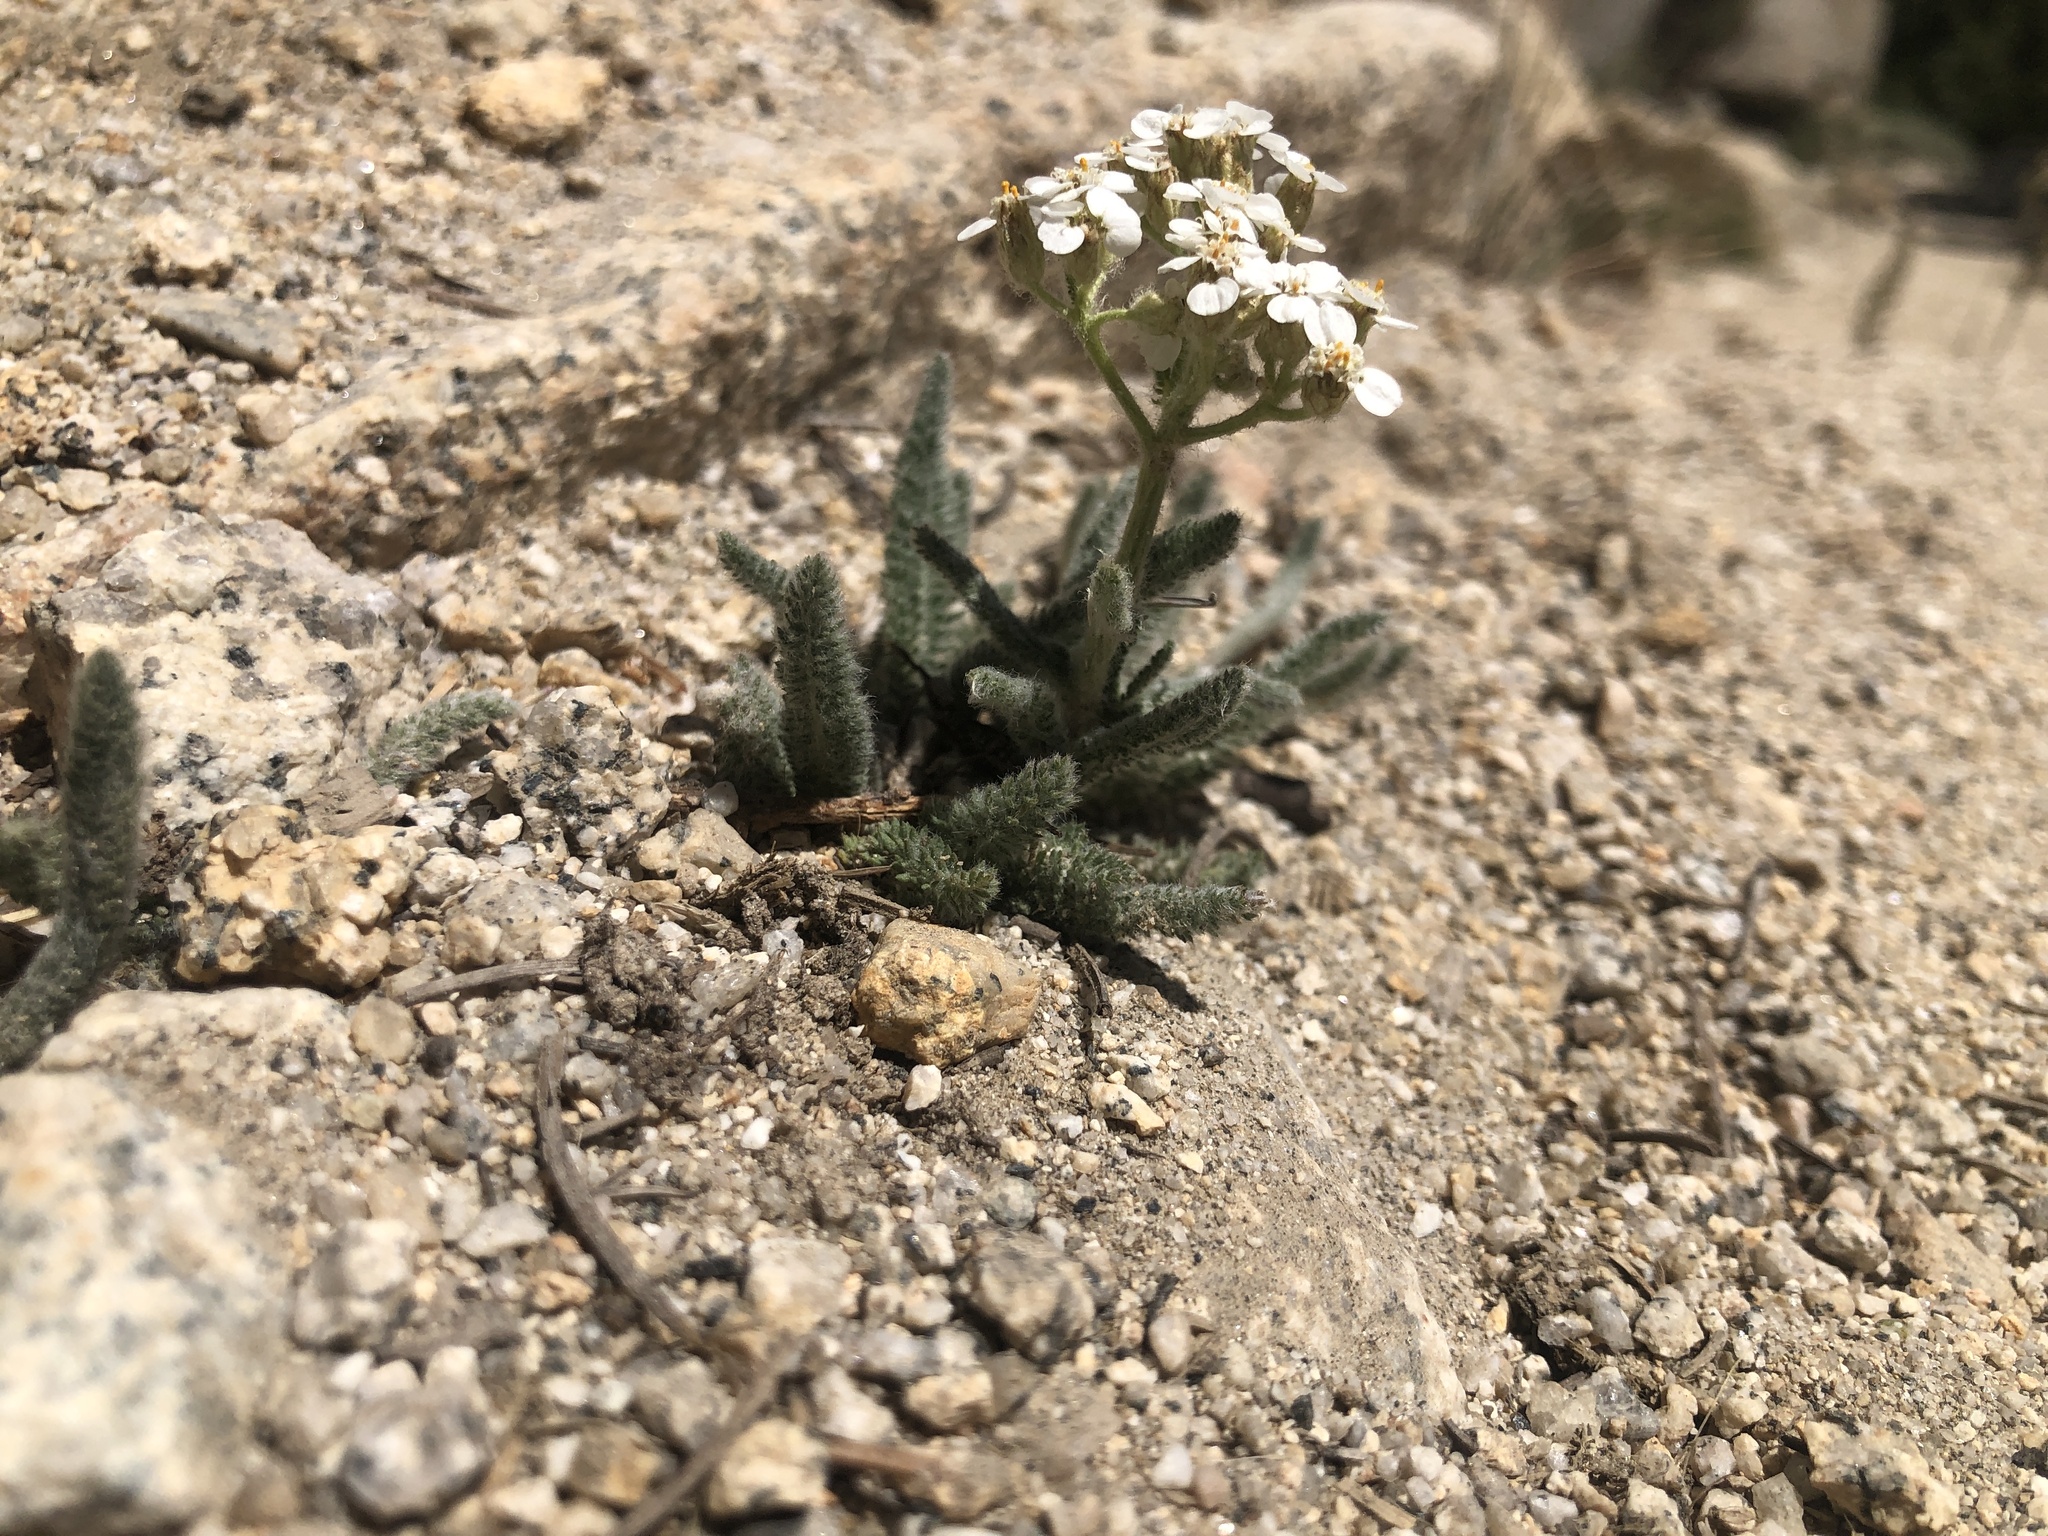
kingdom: Plantae
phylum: Tracheophyta
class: Magnoliopsida
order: Asterales
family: Asteraceae
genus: Achillea
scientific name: Achillea millefolium
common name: Yarrow
